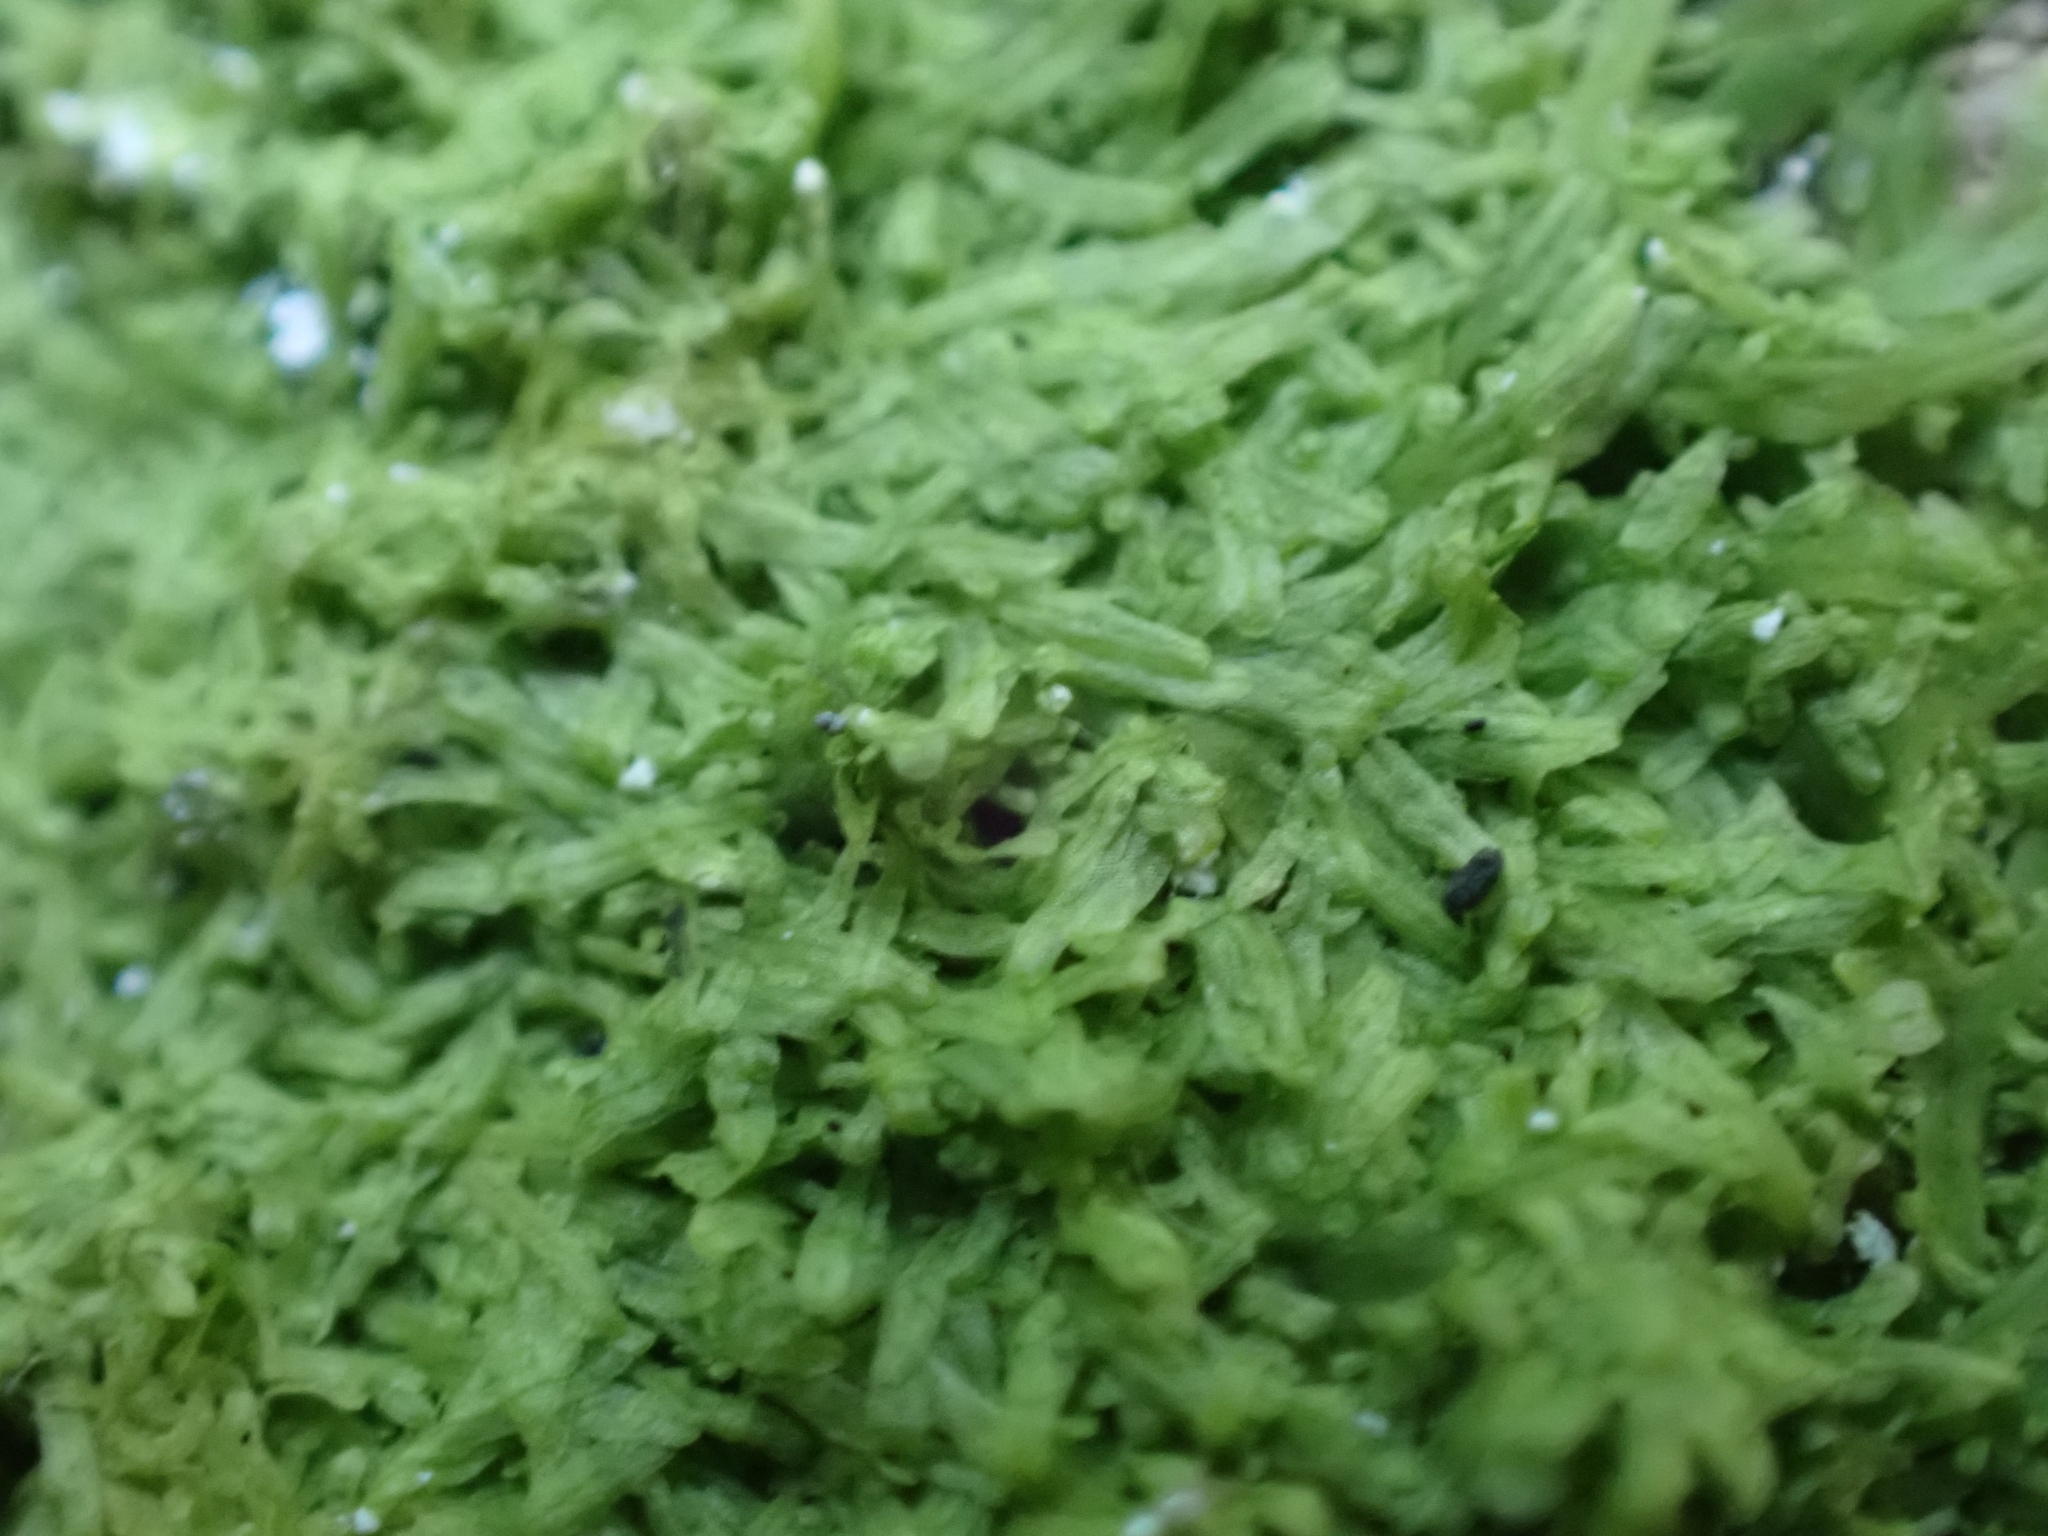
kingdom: Plantae
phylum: Marchantiophyta
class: Jungermanniopsida
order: Metzgeriales
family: Metzgeriaceae
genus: Metzgeria
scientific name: Metzgeria furcata
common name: Forked veilwort
